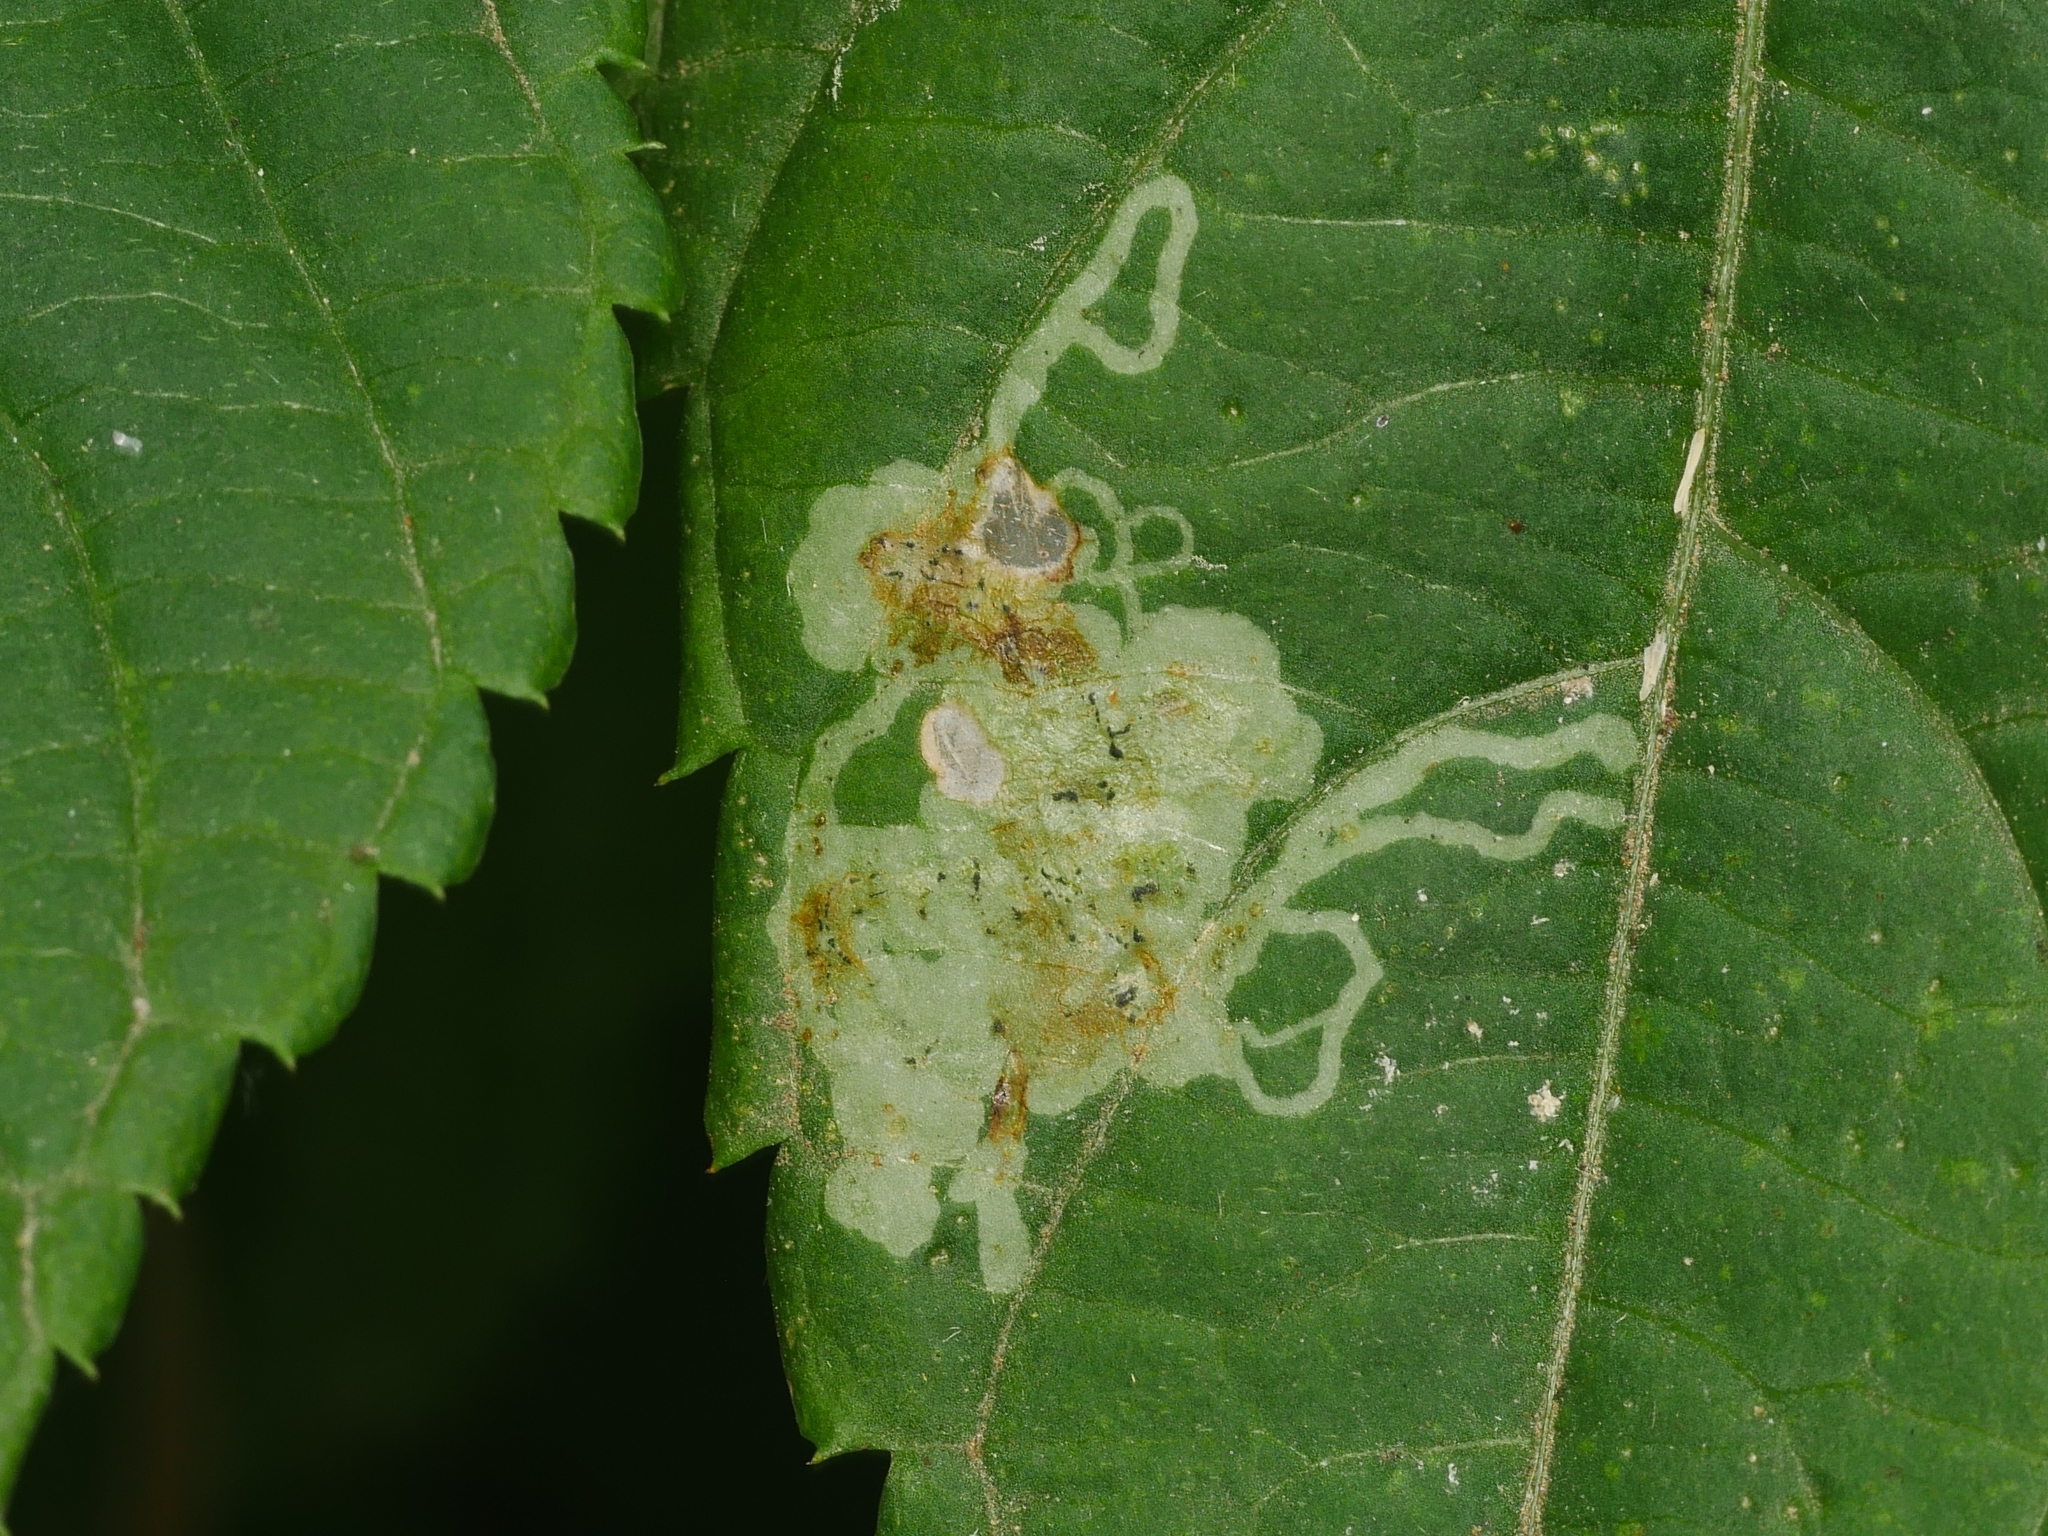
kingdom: Animalia
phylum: Arthropoda
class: Insecta
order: Diptera
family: Agromyzidae
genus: Phytoliriomyza
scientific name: Phytoliriomyza melampyga
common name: Jewelweed leaf-miner fly
